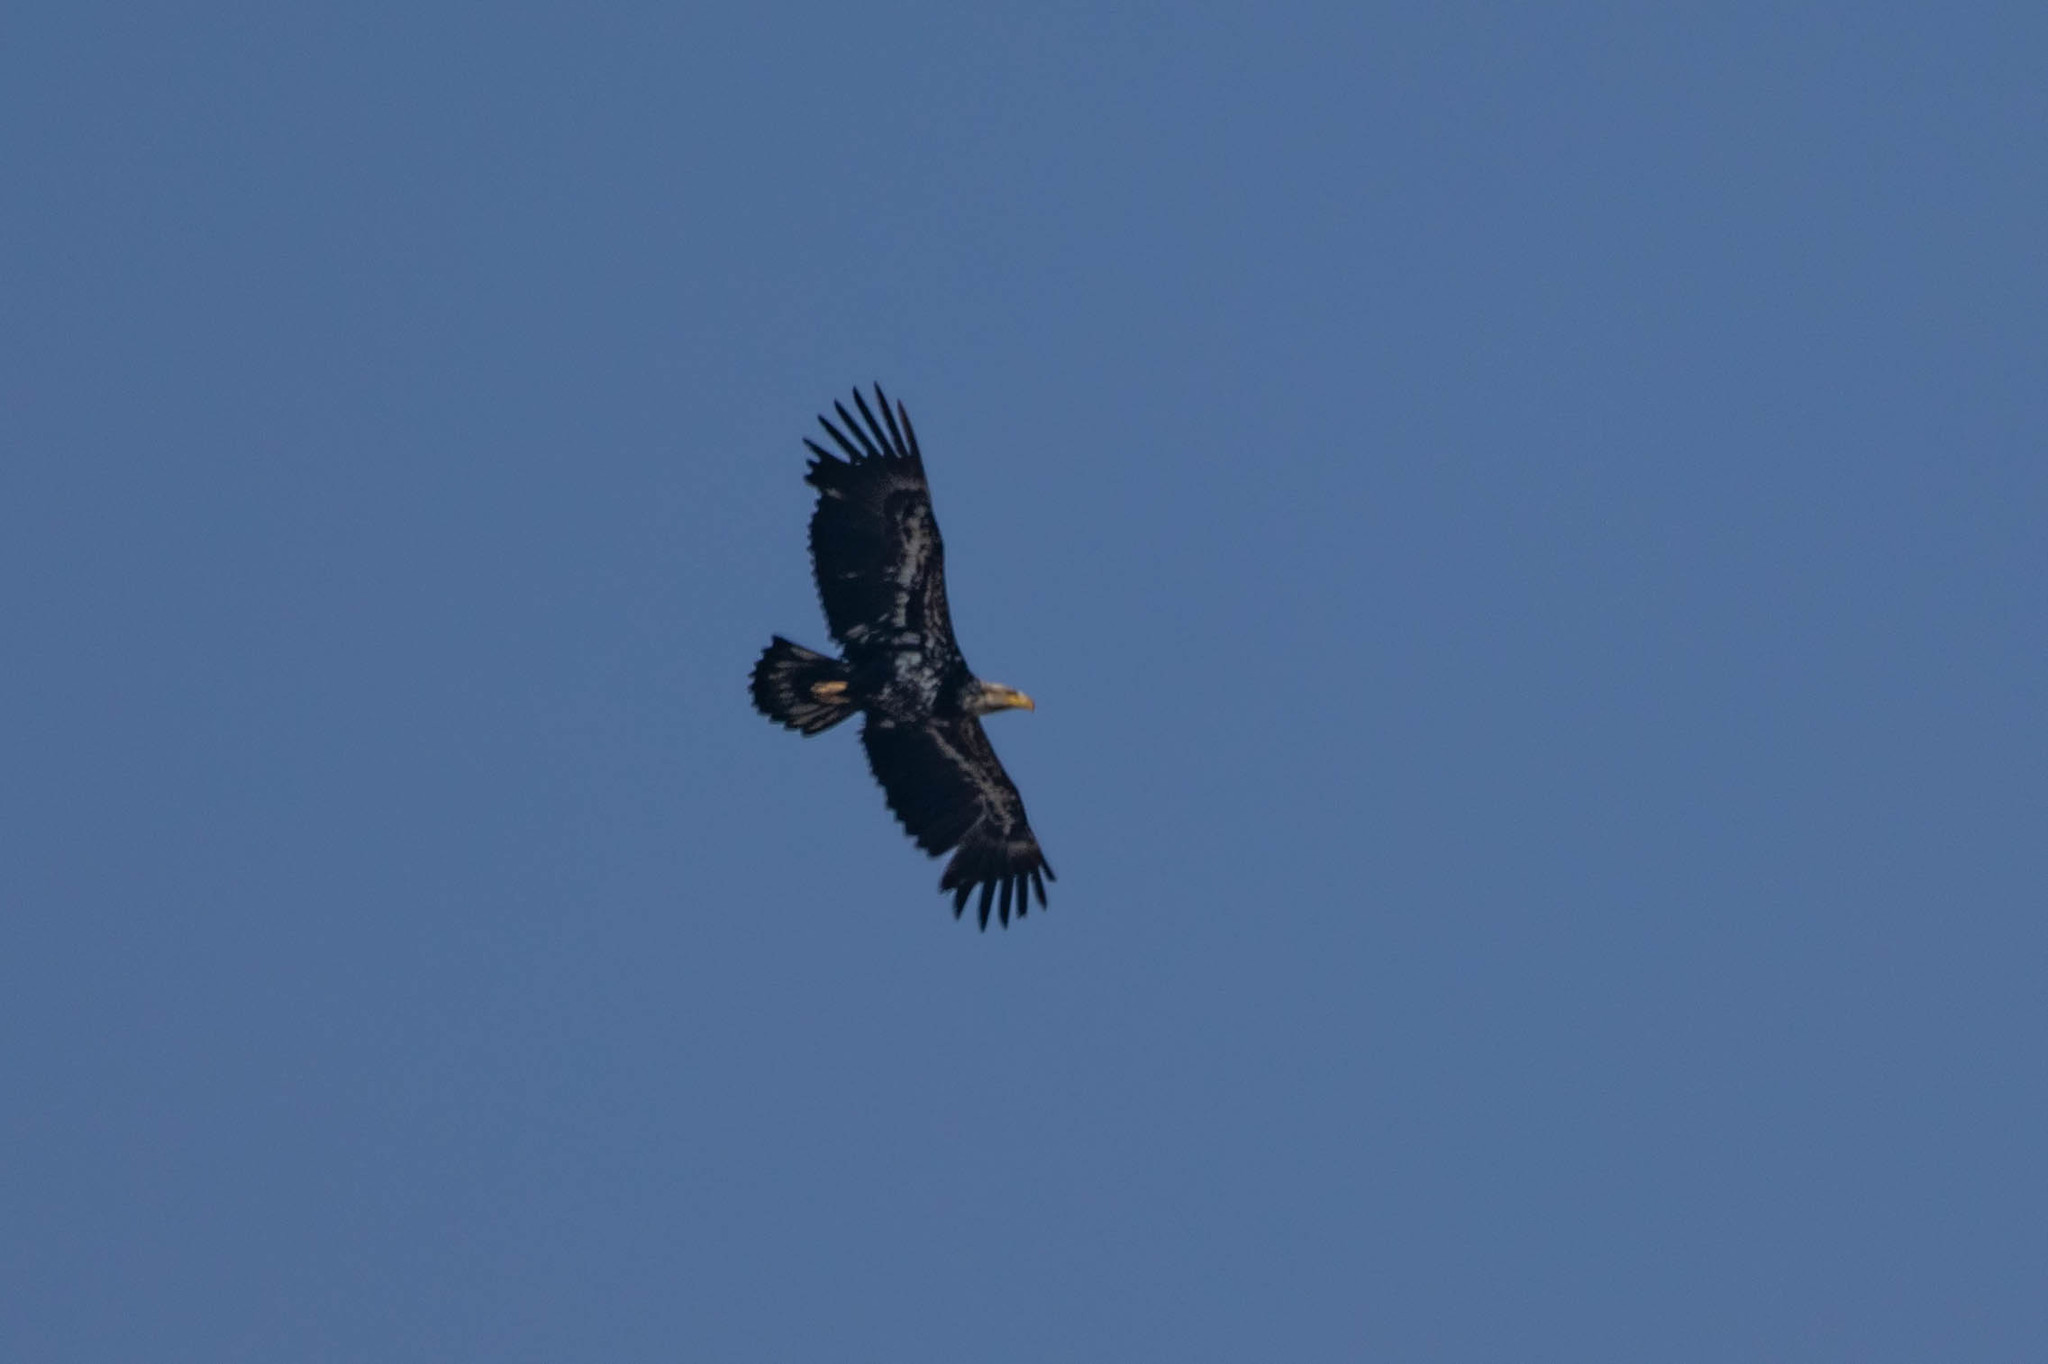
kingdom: Animalia
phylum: Chordata
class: Aves
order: Accipitriformes
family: Accipitridae
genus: Haliaeetus
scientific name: Haliaeetus leucocephalus
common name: Bald eagle
